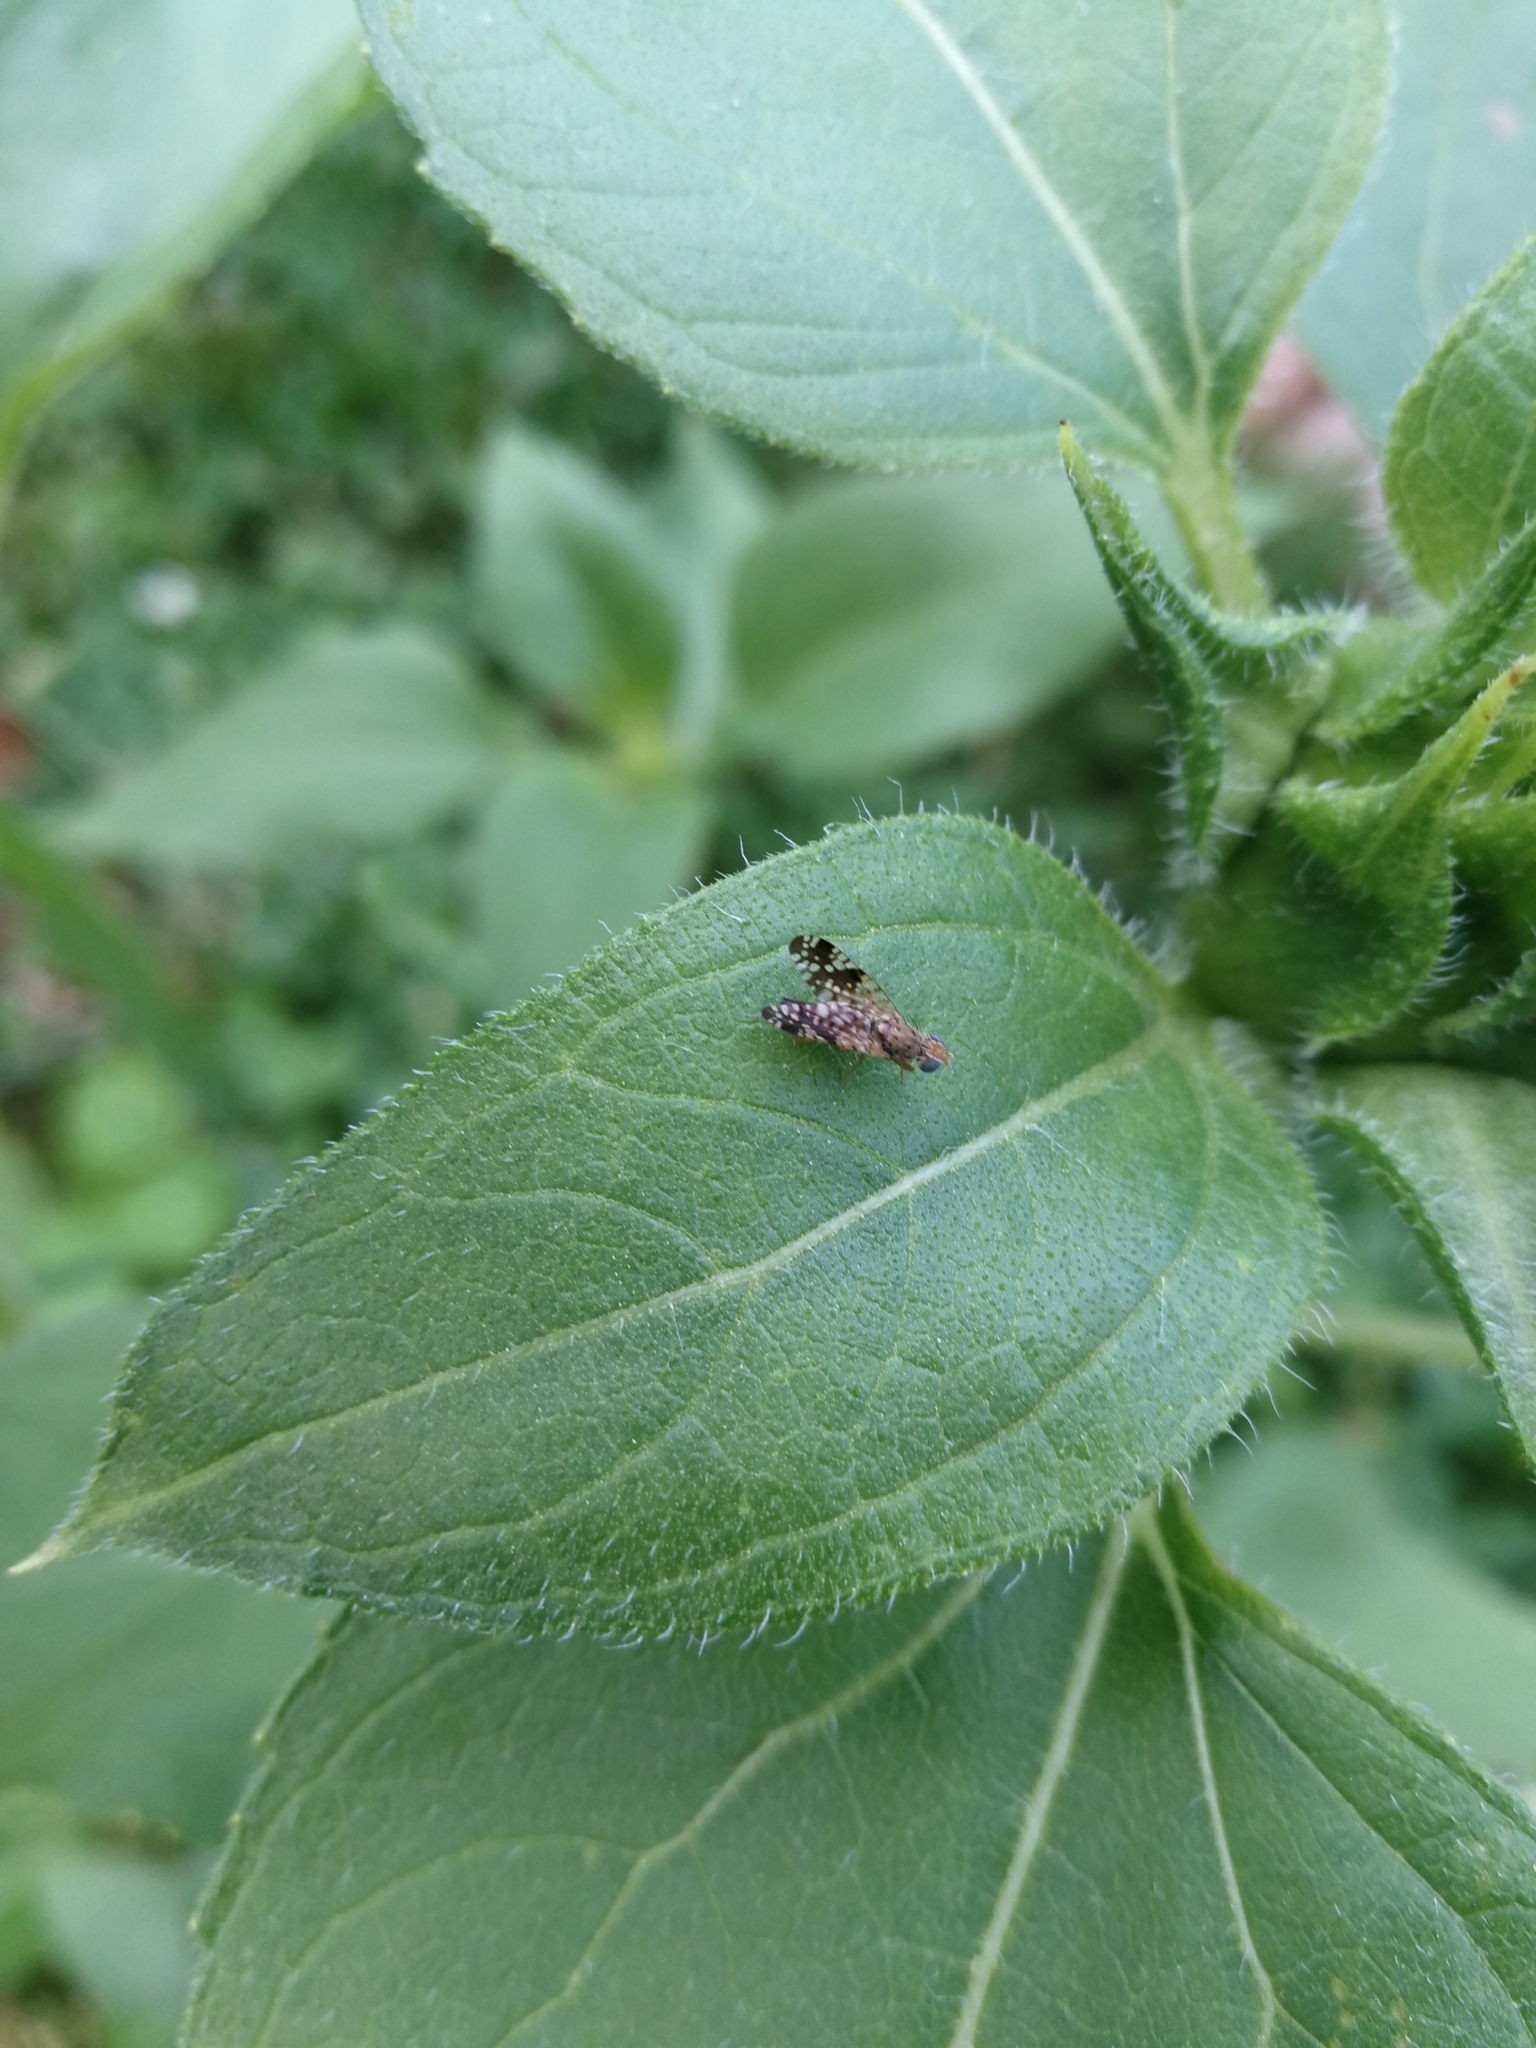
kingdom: Animalia
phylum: Arthropoda
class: Insecta
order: Diptera
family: Tephritidae
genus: Neotephritis
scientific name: Neotephritis finalis
